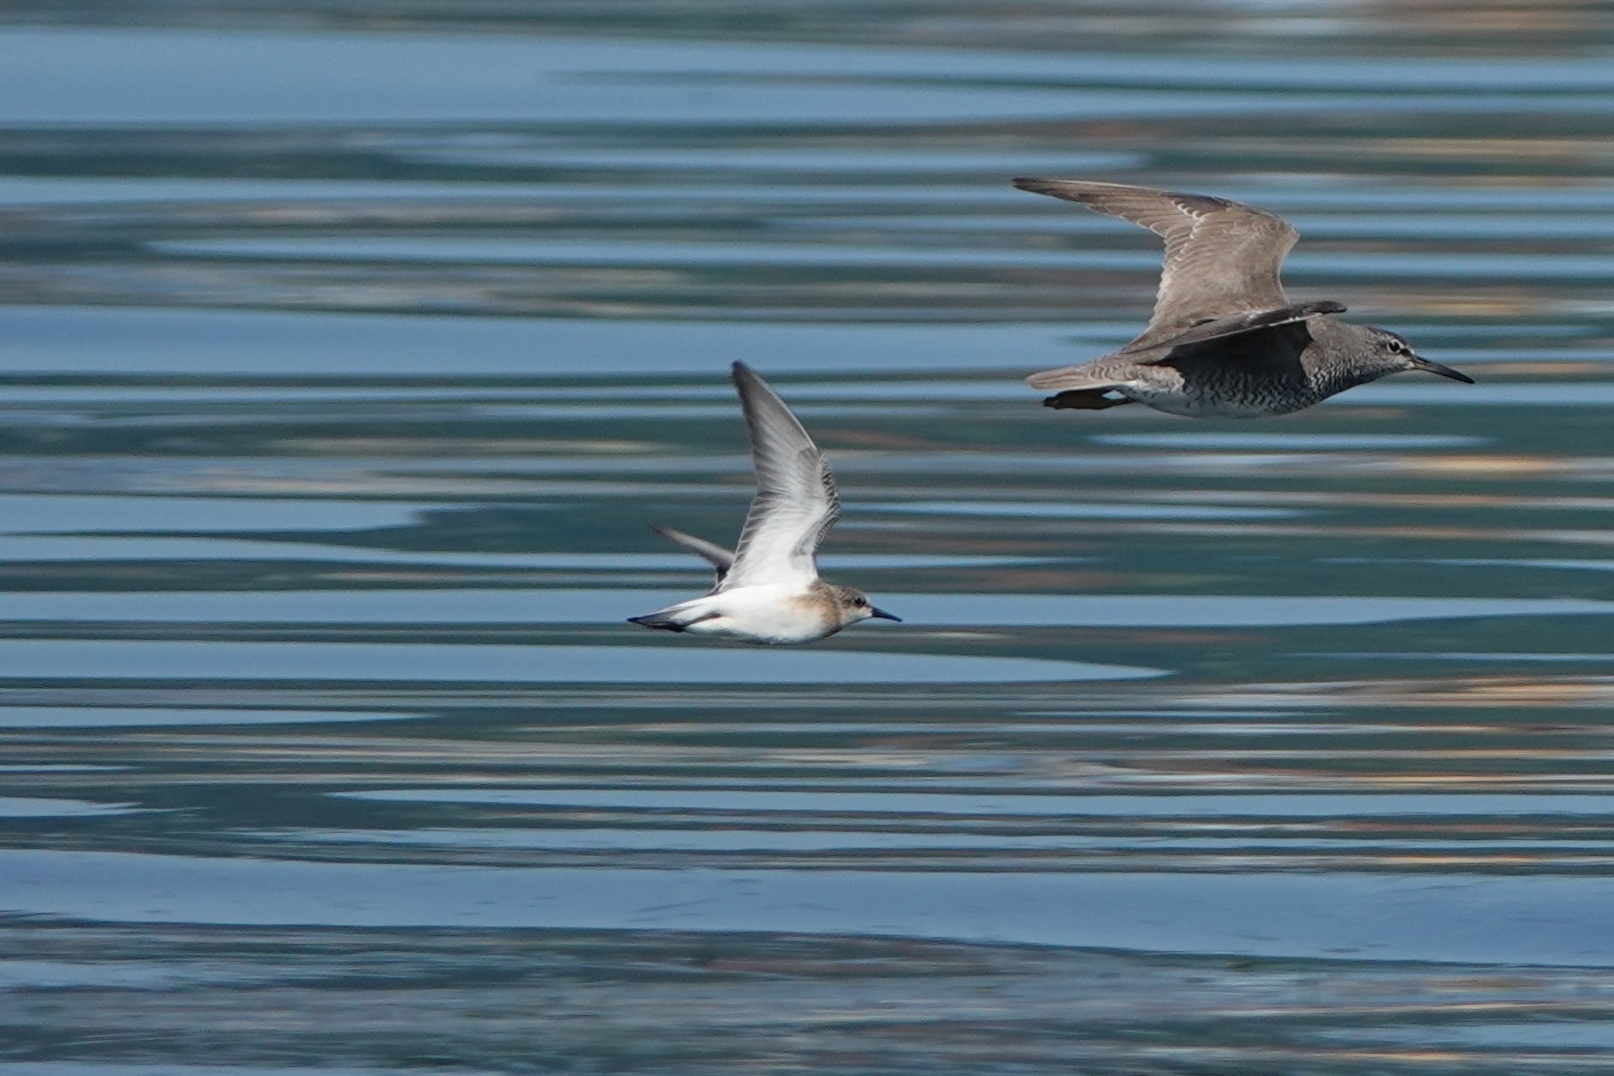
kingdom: Animalia
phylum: Chordata
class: Aves
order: Charadriiformes
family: Scolopacidae
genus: Calidris
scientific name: Calidris ruficollis
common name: Red-necked stint
